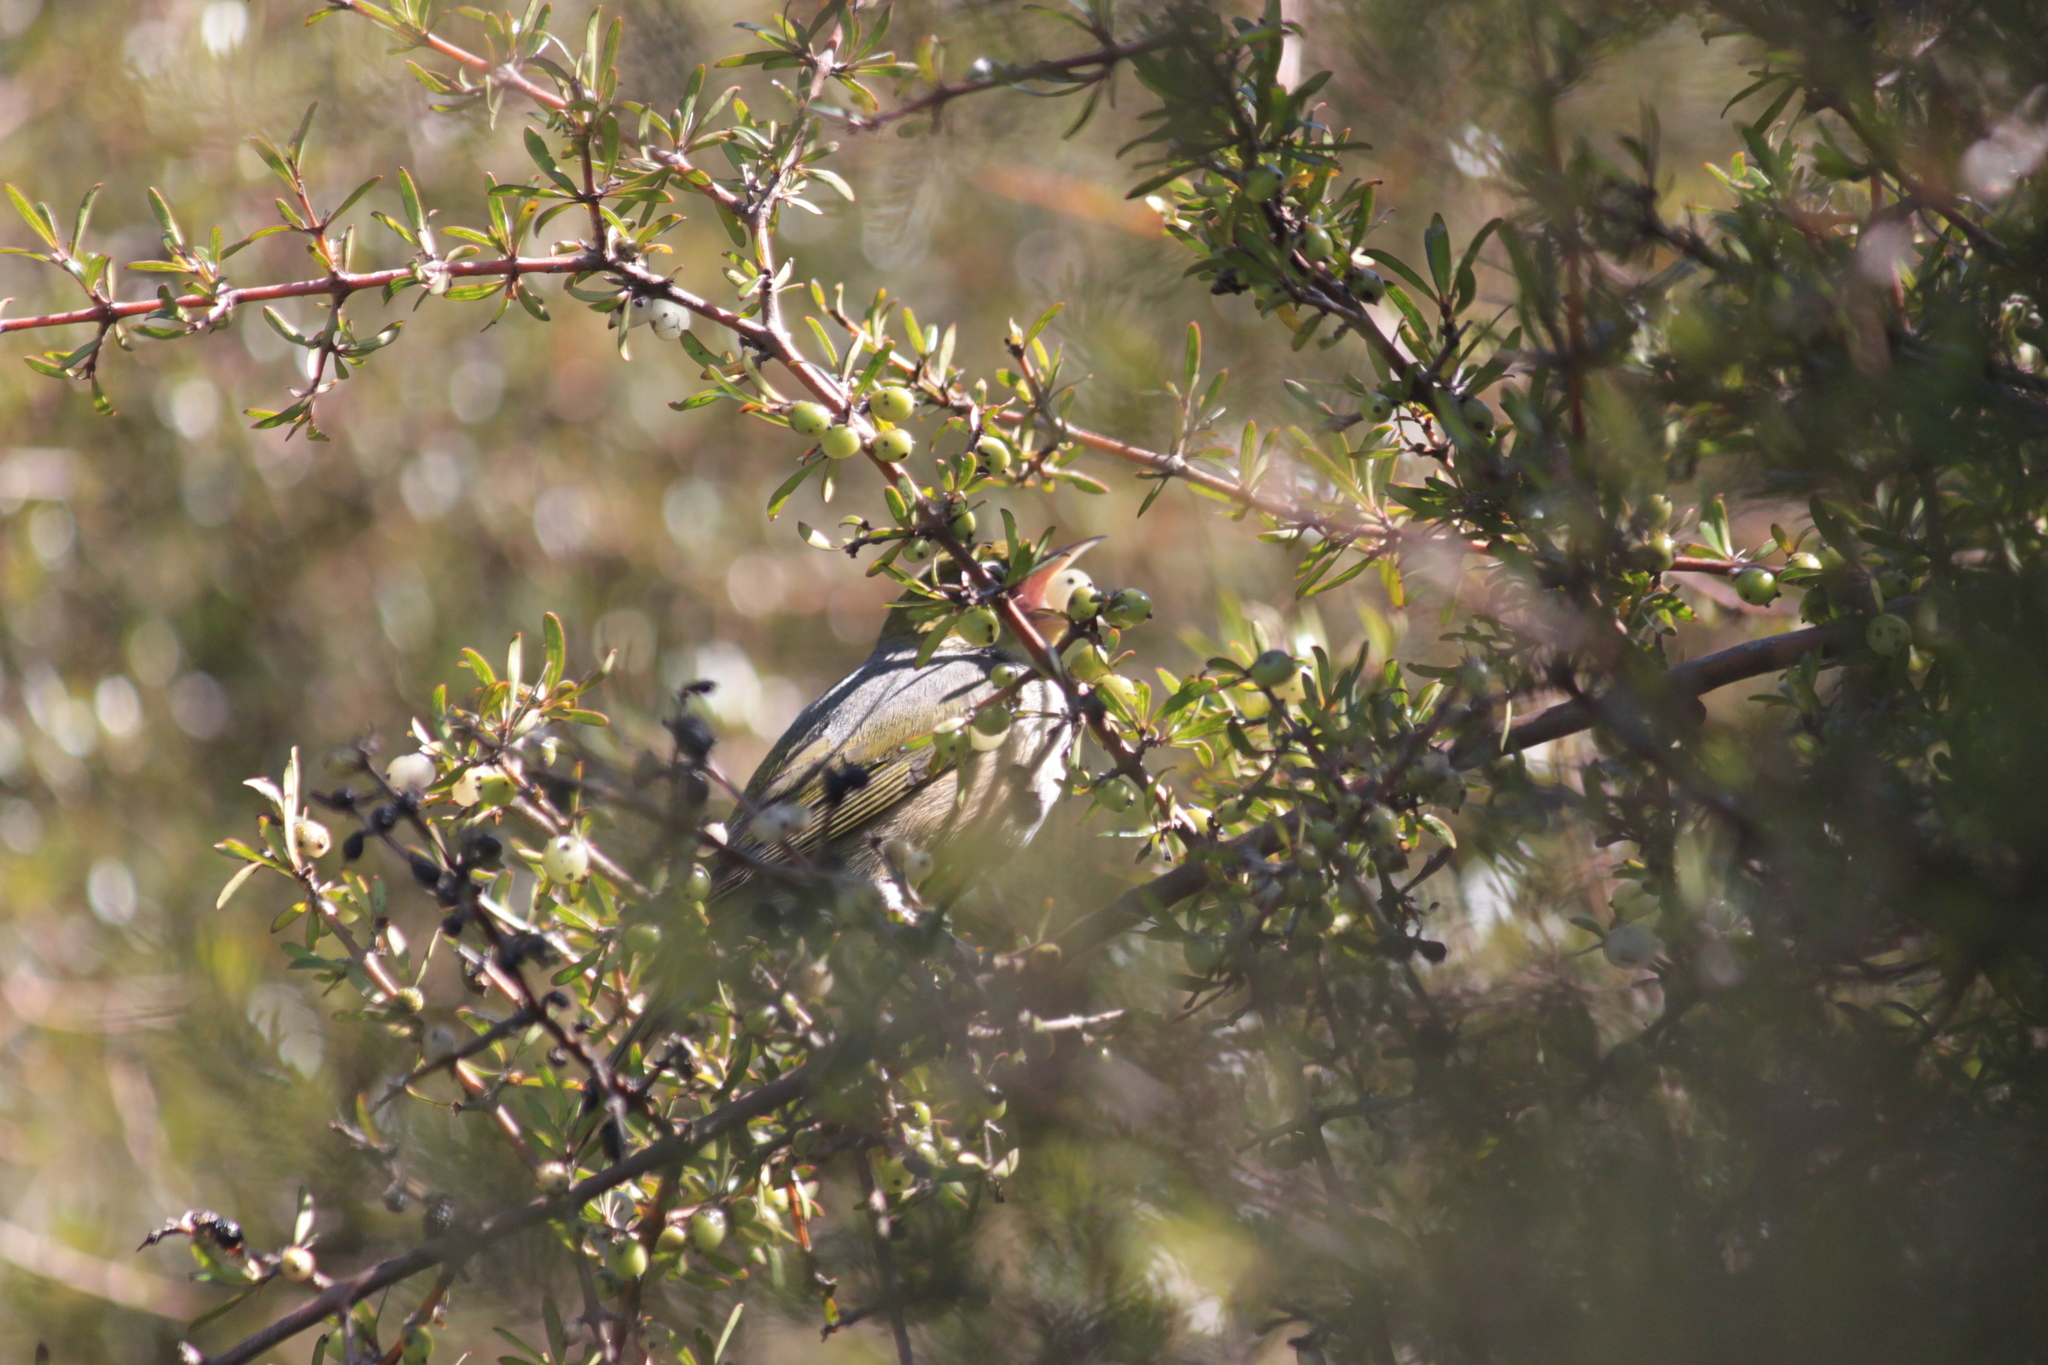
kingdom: Animalia
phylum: Chordata
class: Aves
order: Passeriformes
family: Zosteropidae
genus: Zosterops
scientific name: Zosterops lateralis
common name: Silvereye
